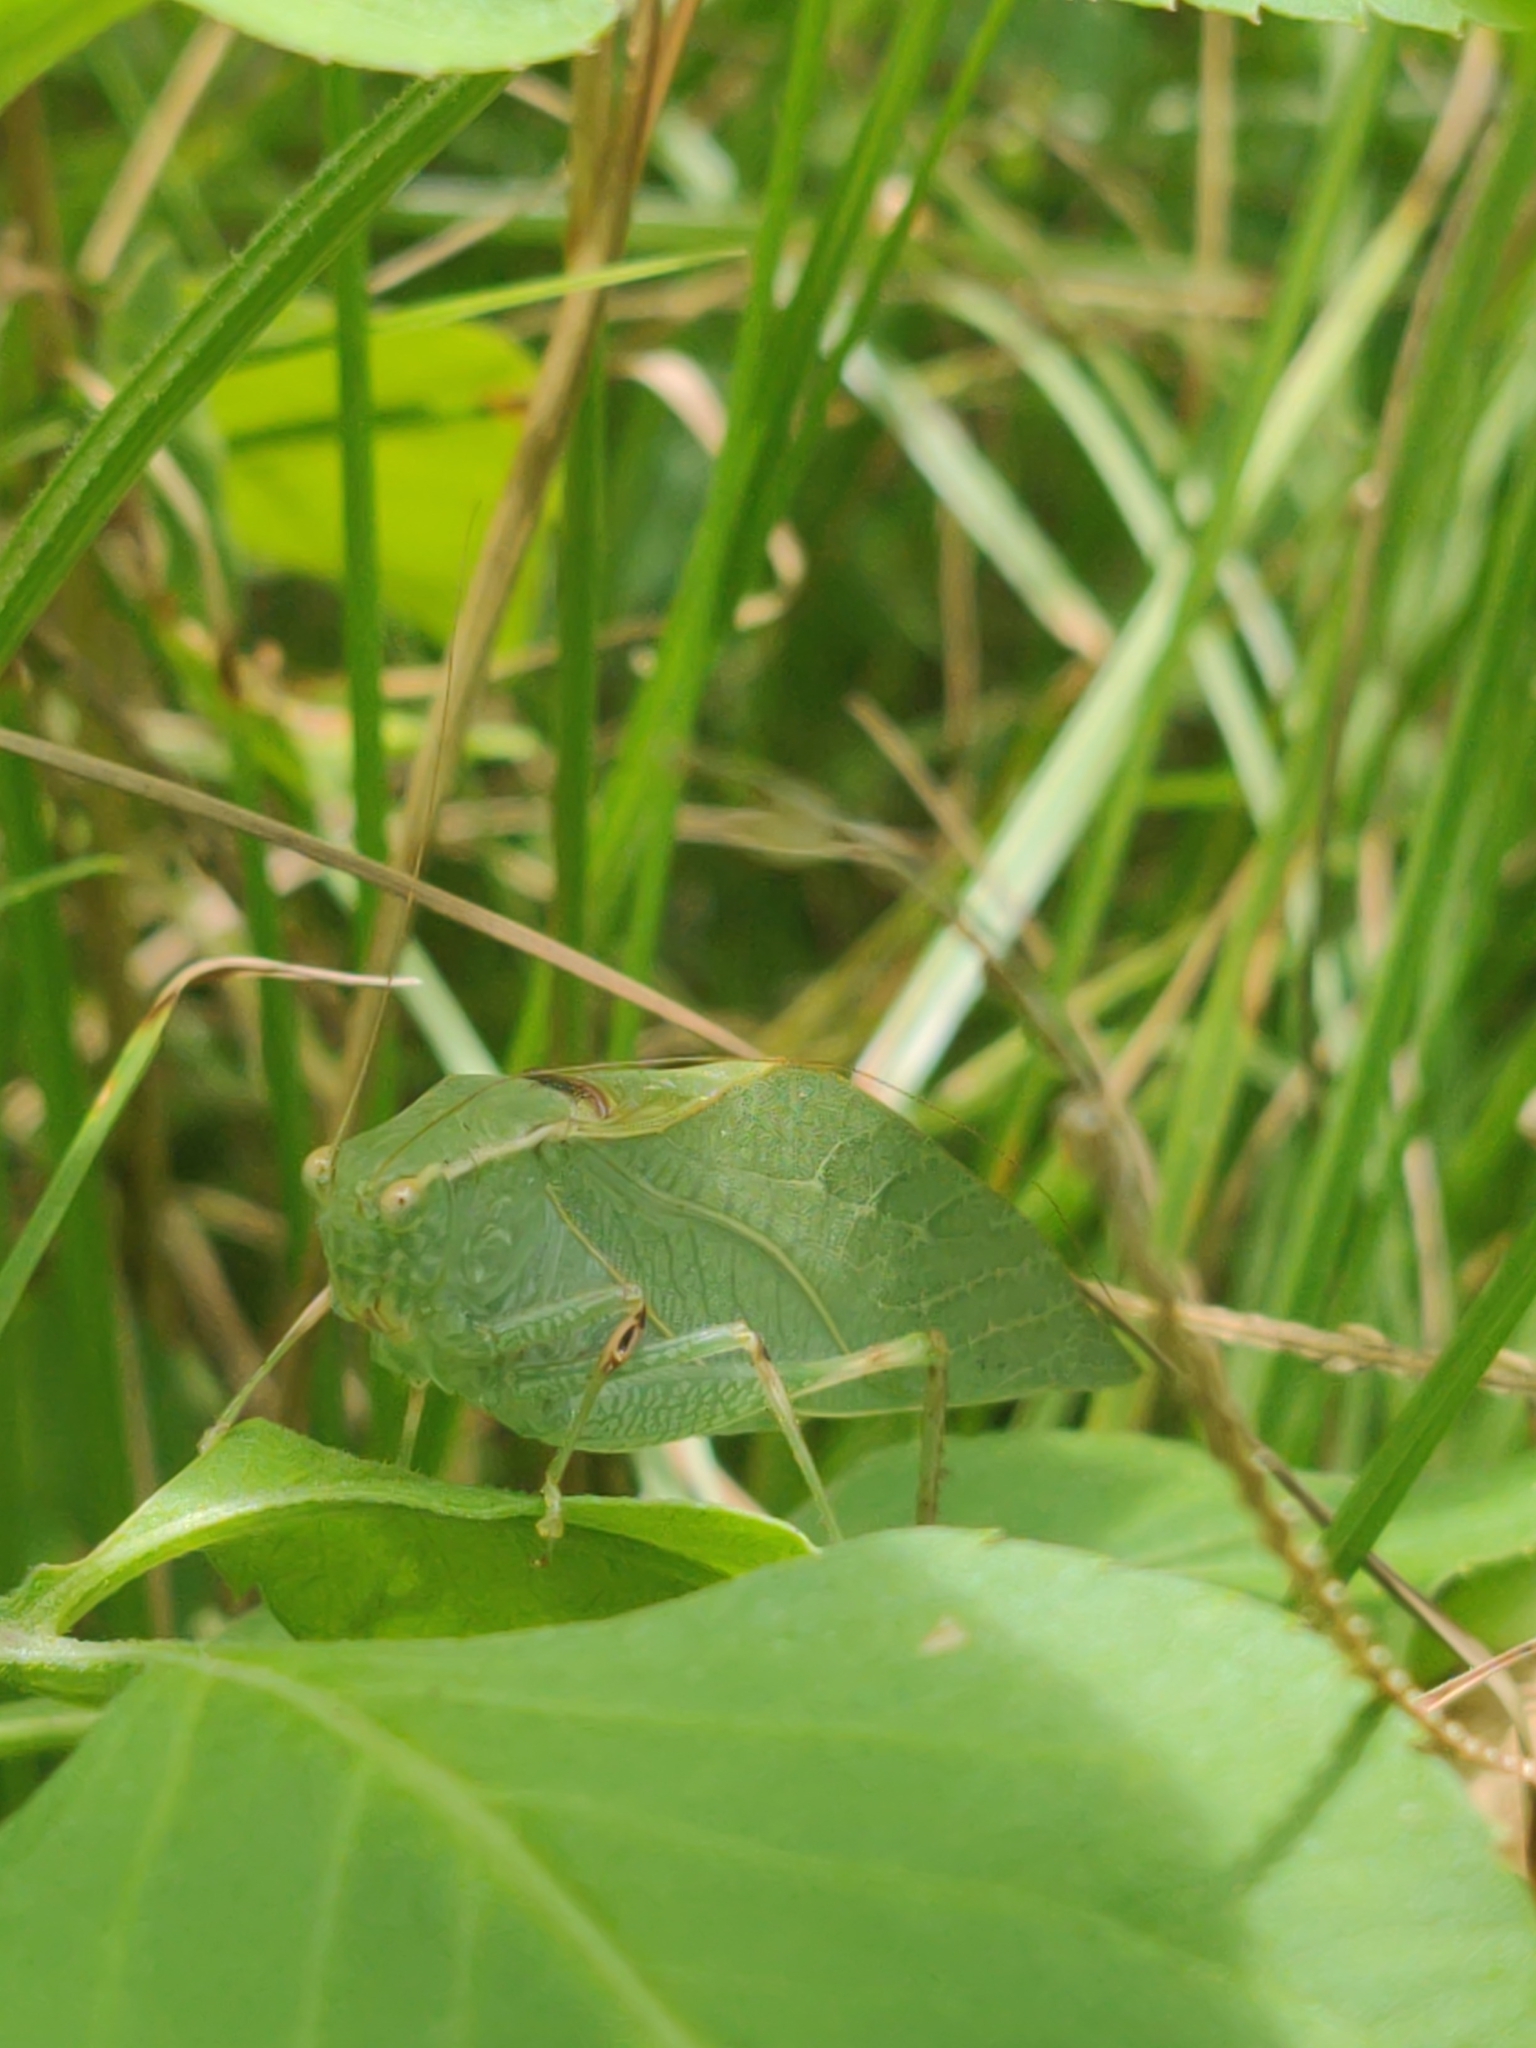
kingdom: Animalia
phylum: Arthropoda
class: Insecta
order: Orthoptera
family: Tettigoniidae
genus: Microcentrum
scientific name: Microcentrum retinerve
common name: Angular-winged katydid
